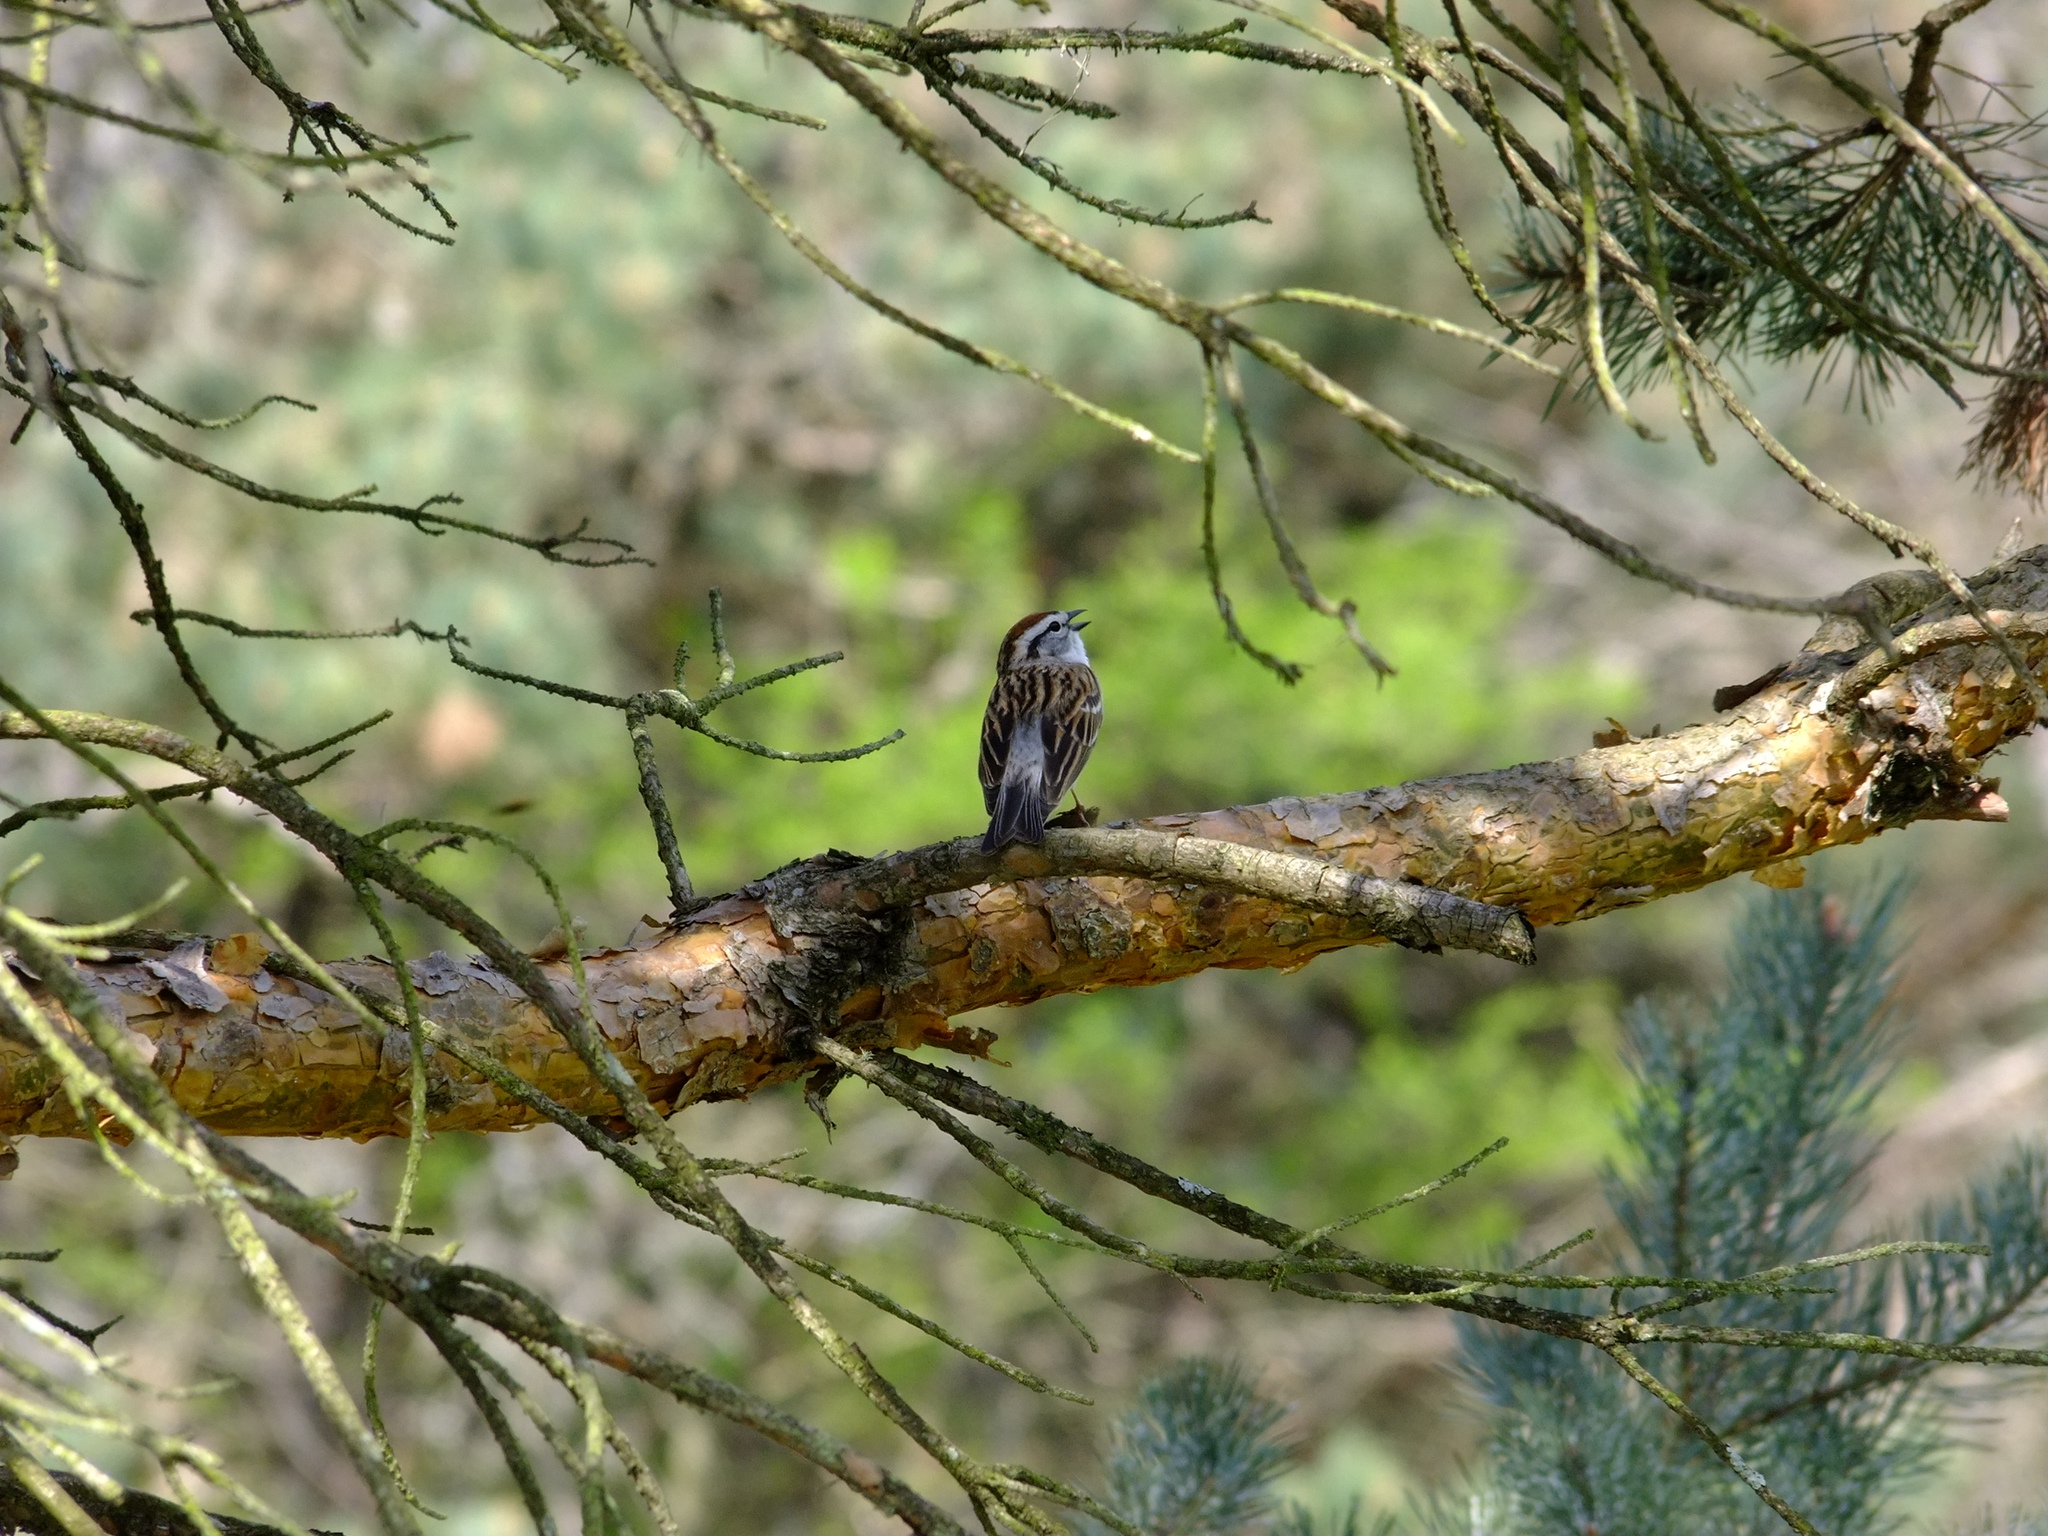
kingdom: Animalia
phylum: Chordata
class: Aves
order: Passeriformes
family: Passerellidae
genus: Spizella
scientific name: Spizella passerina
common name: Chipping sparrow
